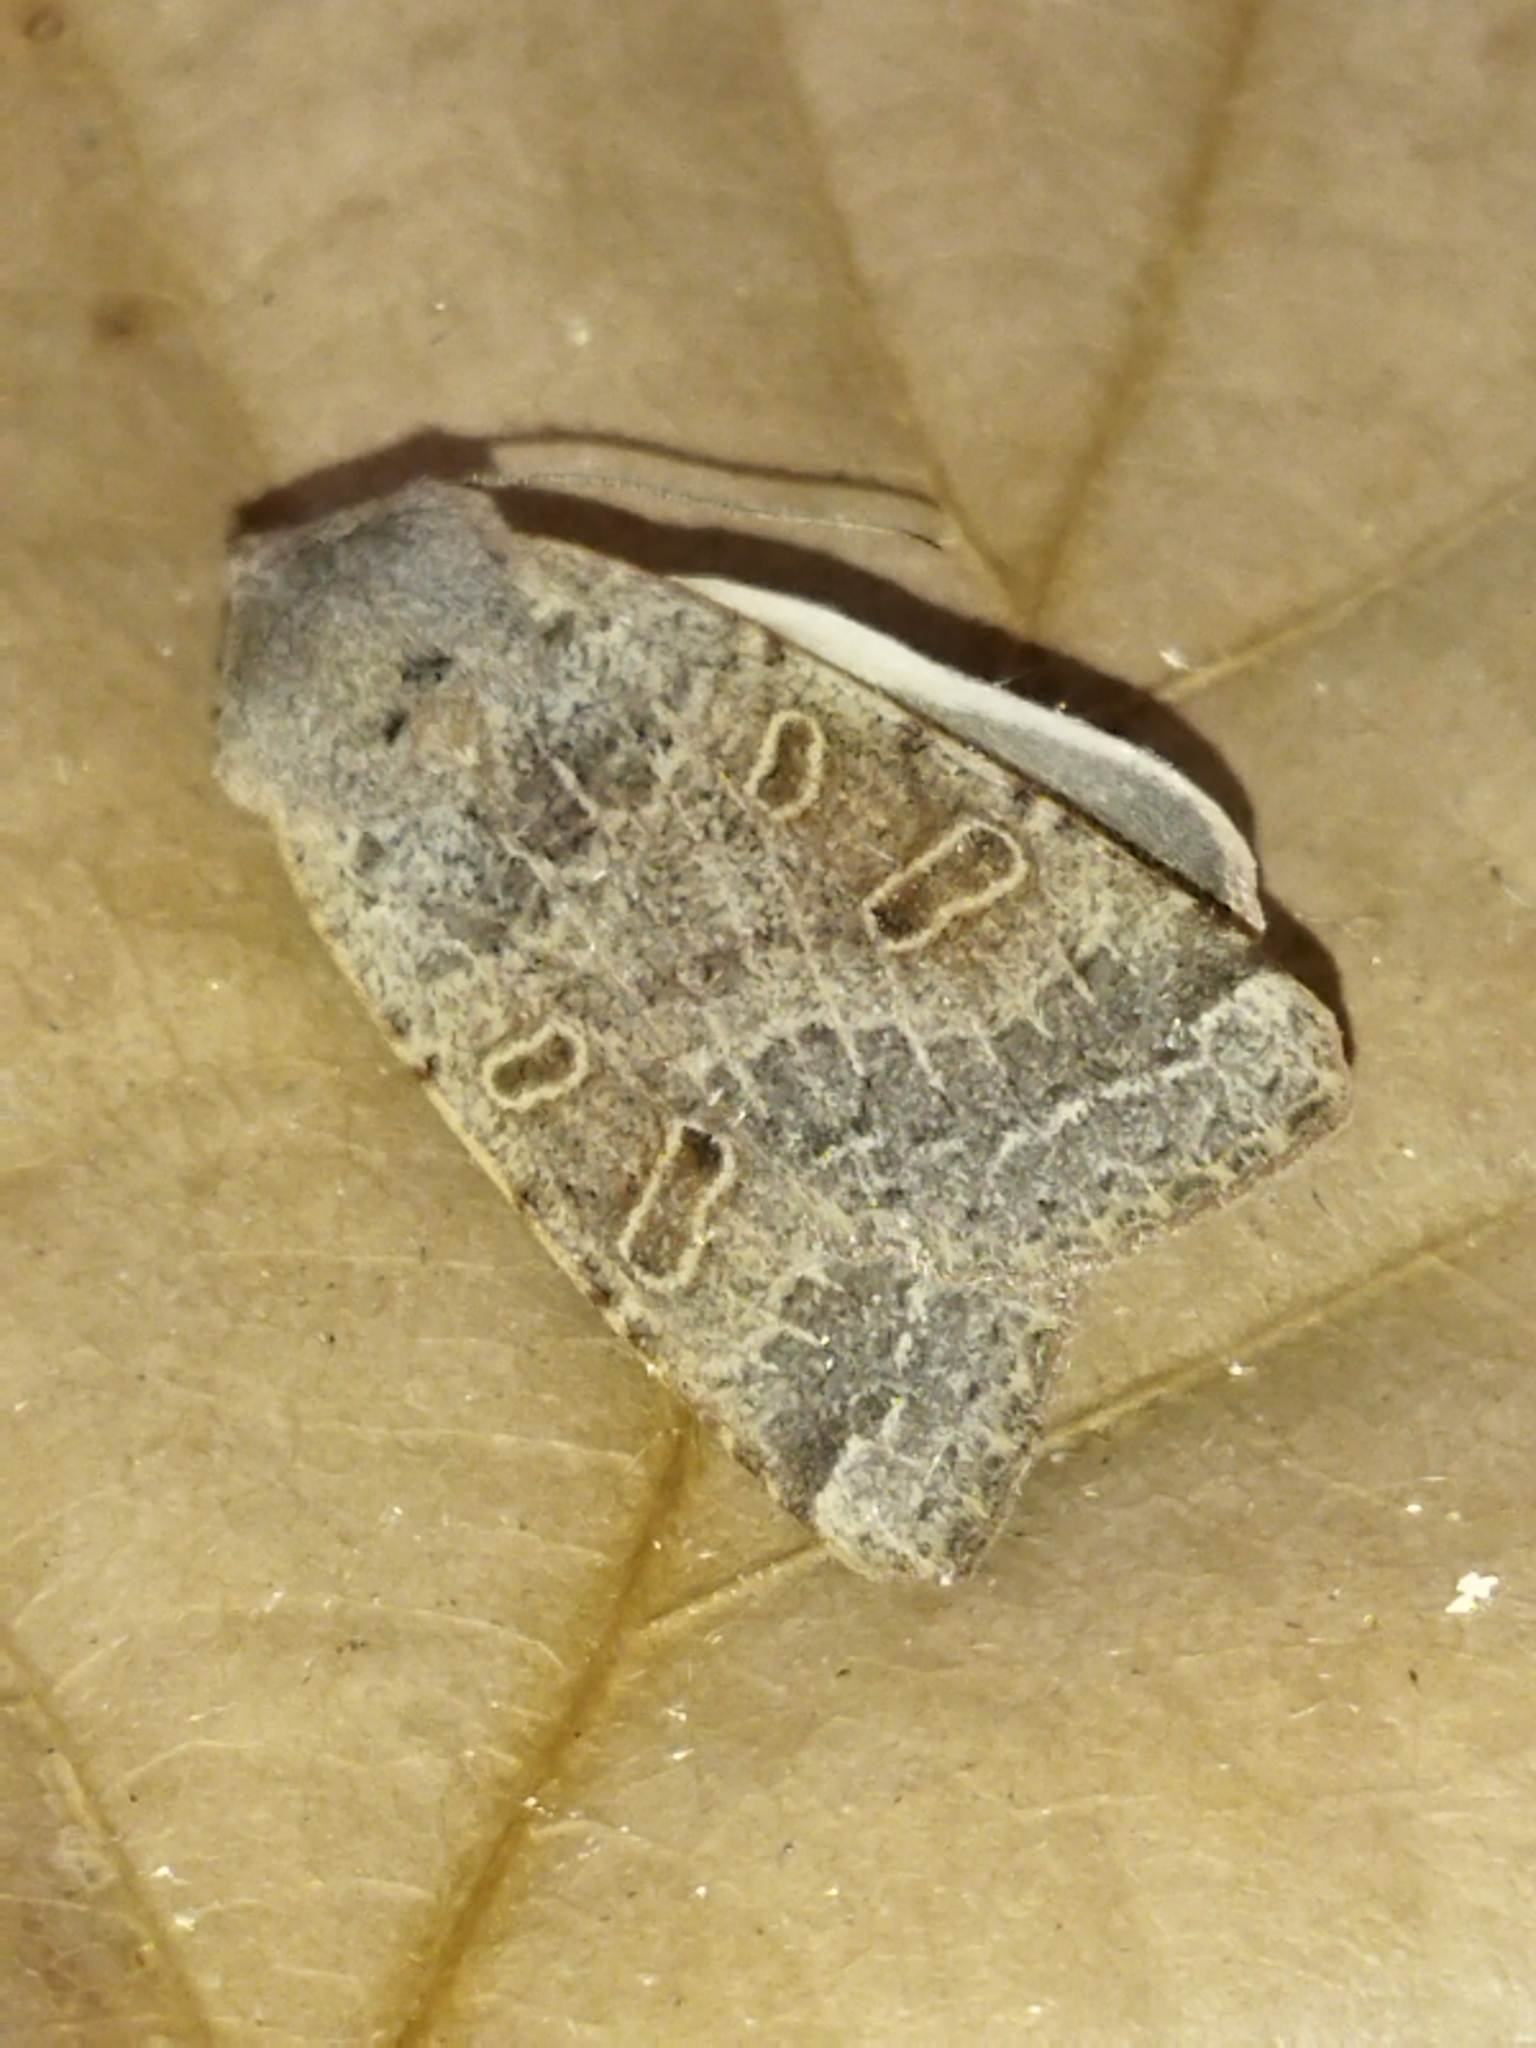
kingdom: Animalia
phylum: Arthropoda
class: Insecta
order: Lepidoptera
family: Noctuidae
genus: Agrochola
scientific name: Agrochola lychnidis
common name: Beaded chestnut
